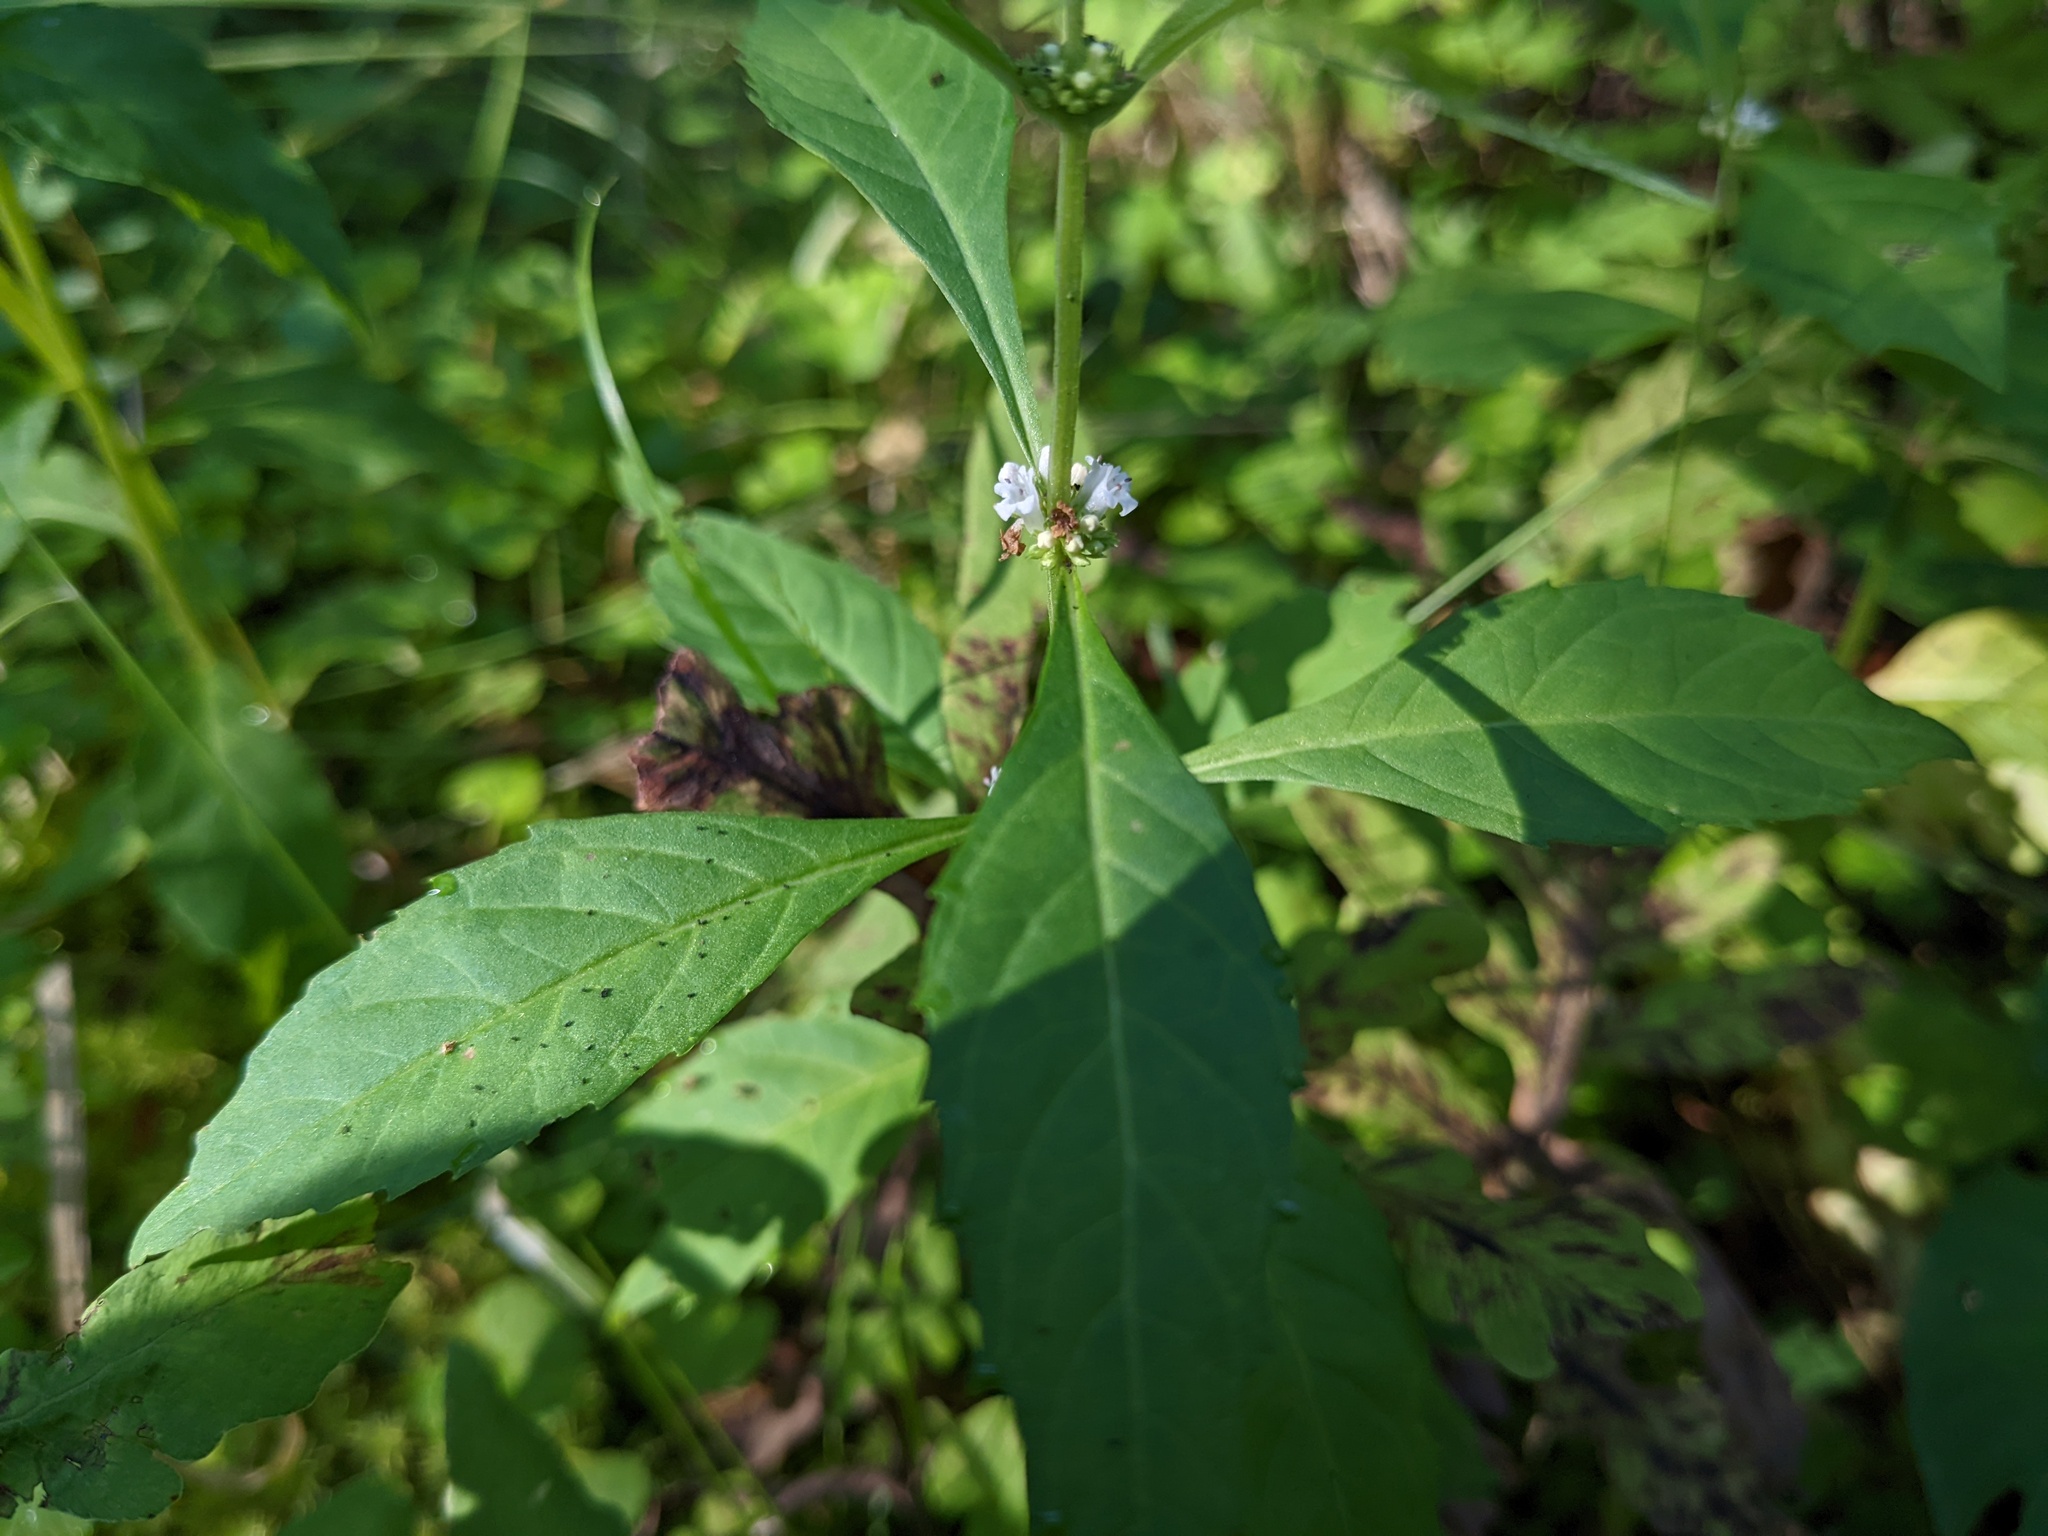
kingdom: Plantae
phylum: Tracheophyta
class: Magnoliopsida
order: Lamiales
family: Lamiaceae
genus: Lycopus
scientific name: Lycopus uniflorus
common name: Northern bugleweed
